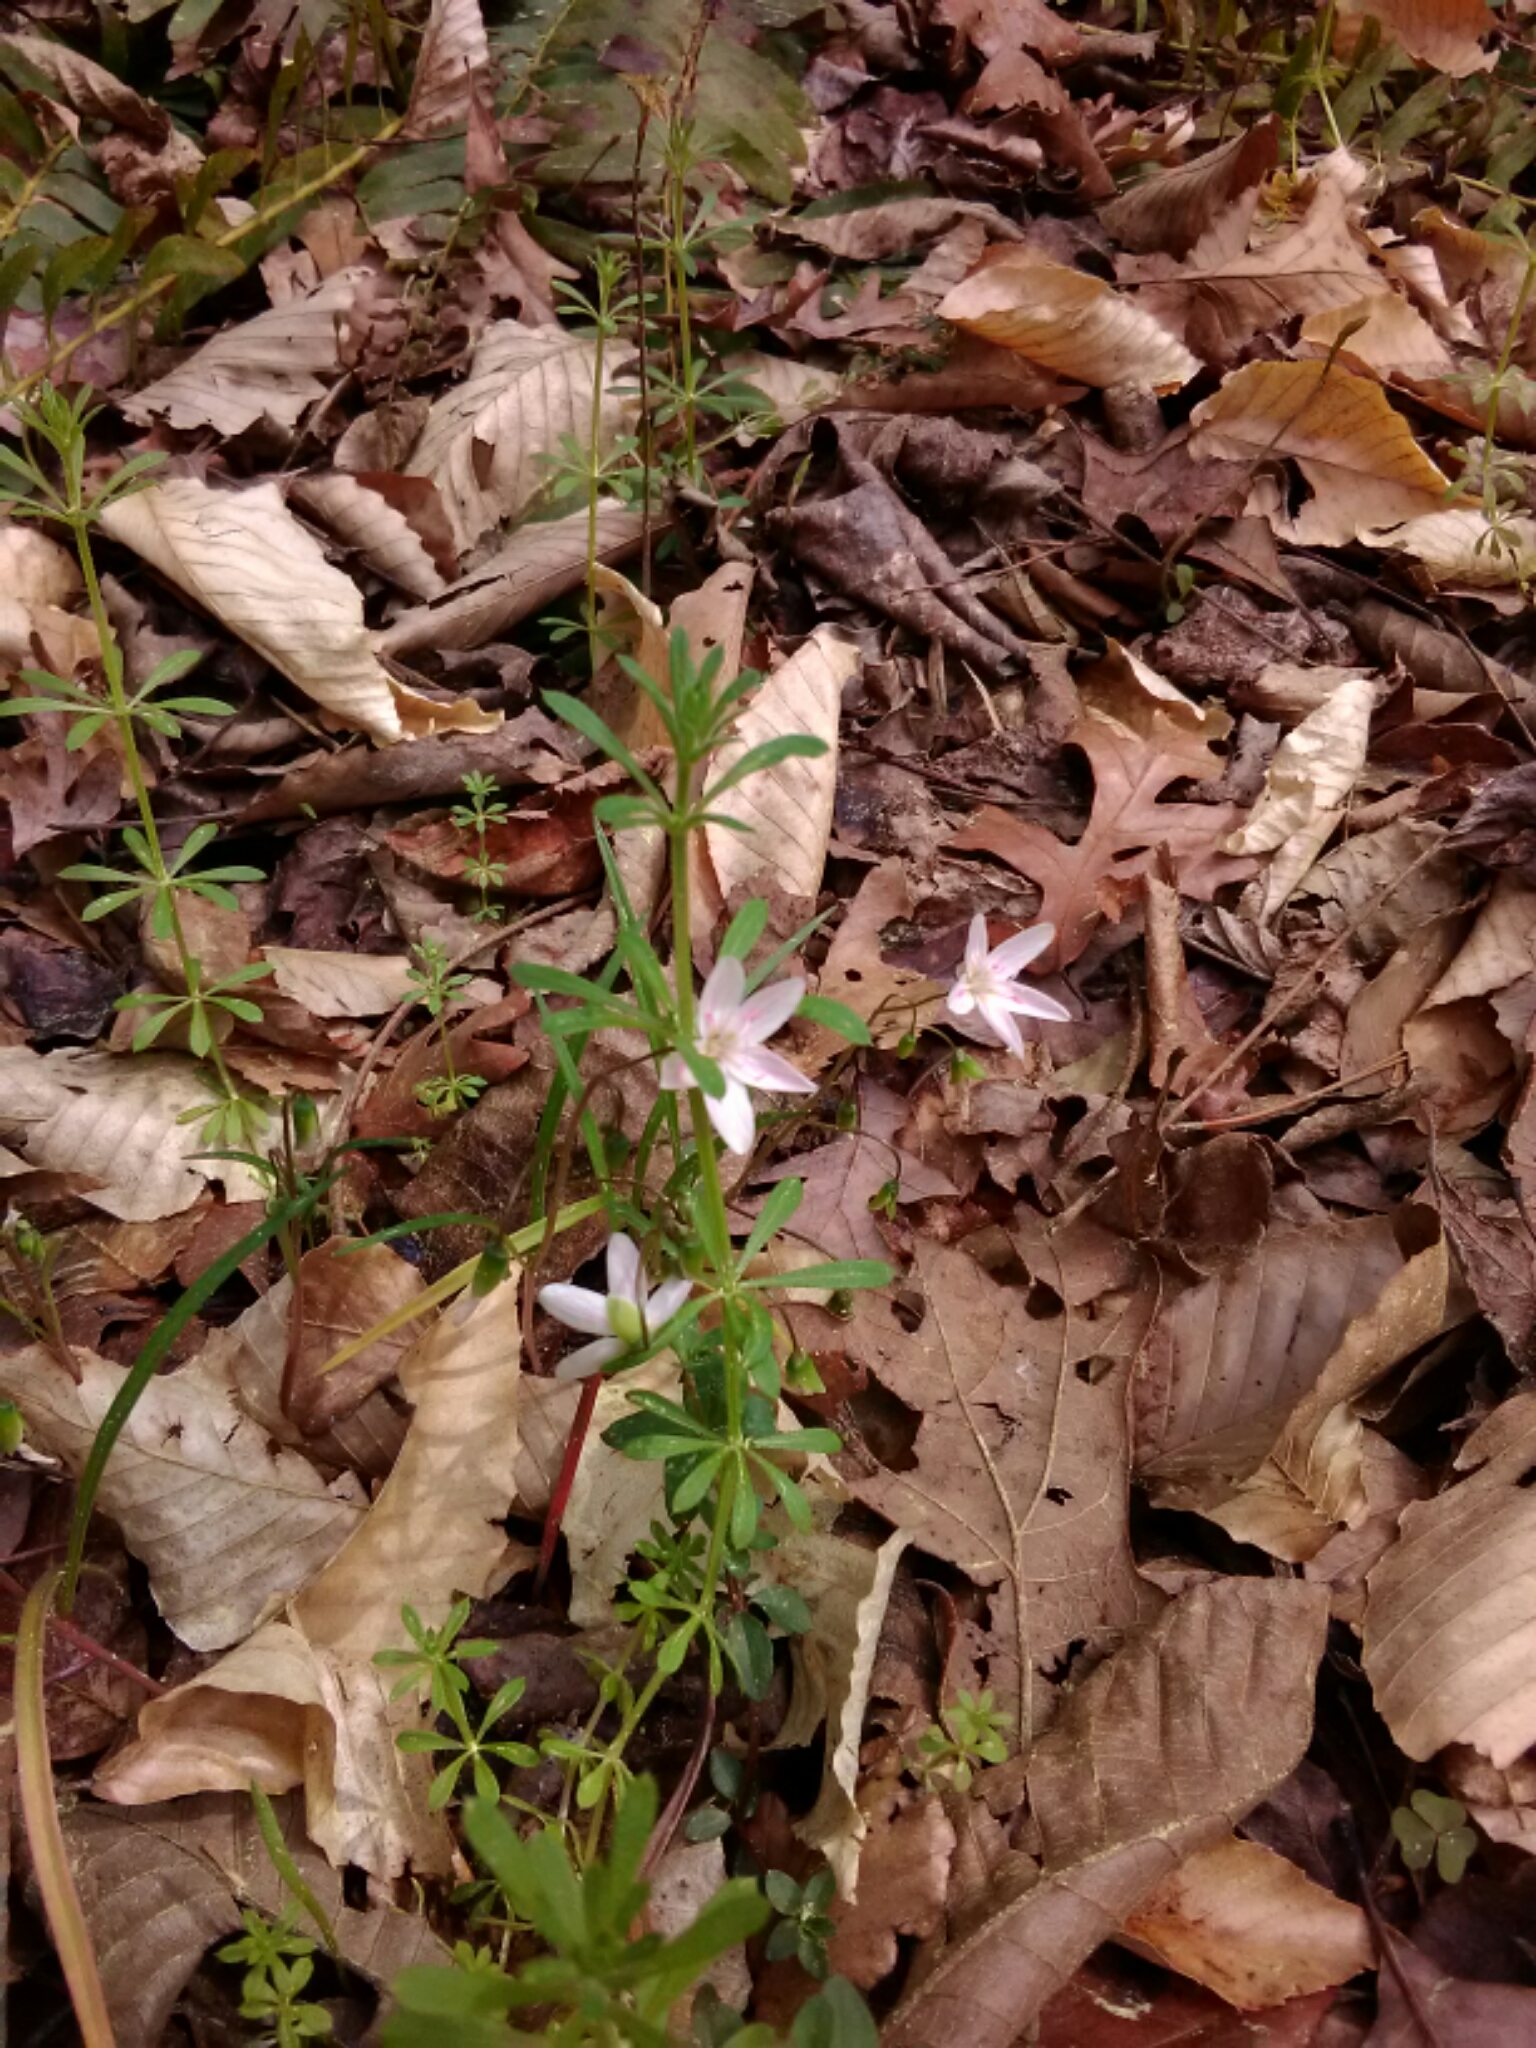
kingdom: Plantae
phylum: Tracheophyta
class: Magnoliopsida
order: Caryophyllales
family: Montiaceae
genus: Claytonia
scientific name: Claytonia virginica
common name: Virginia springbeauty
